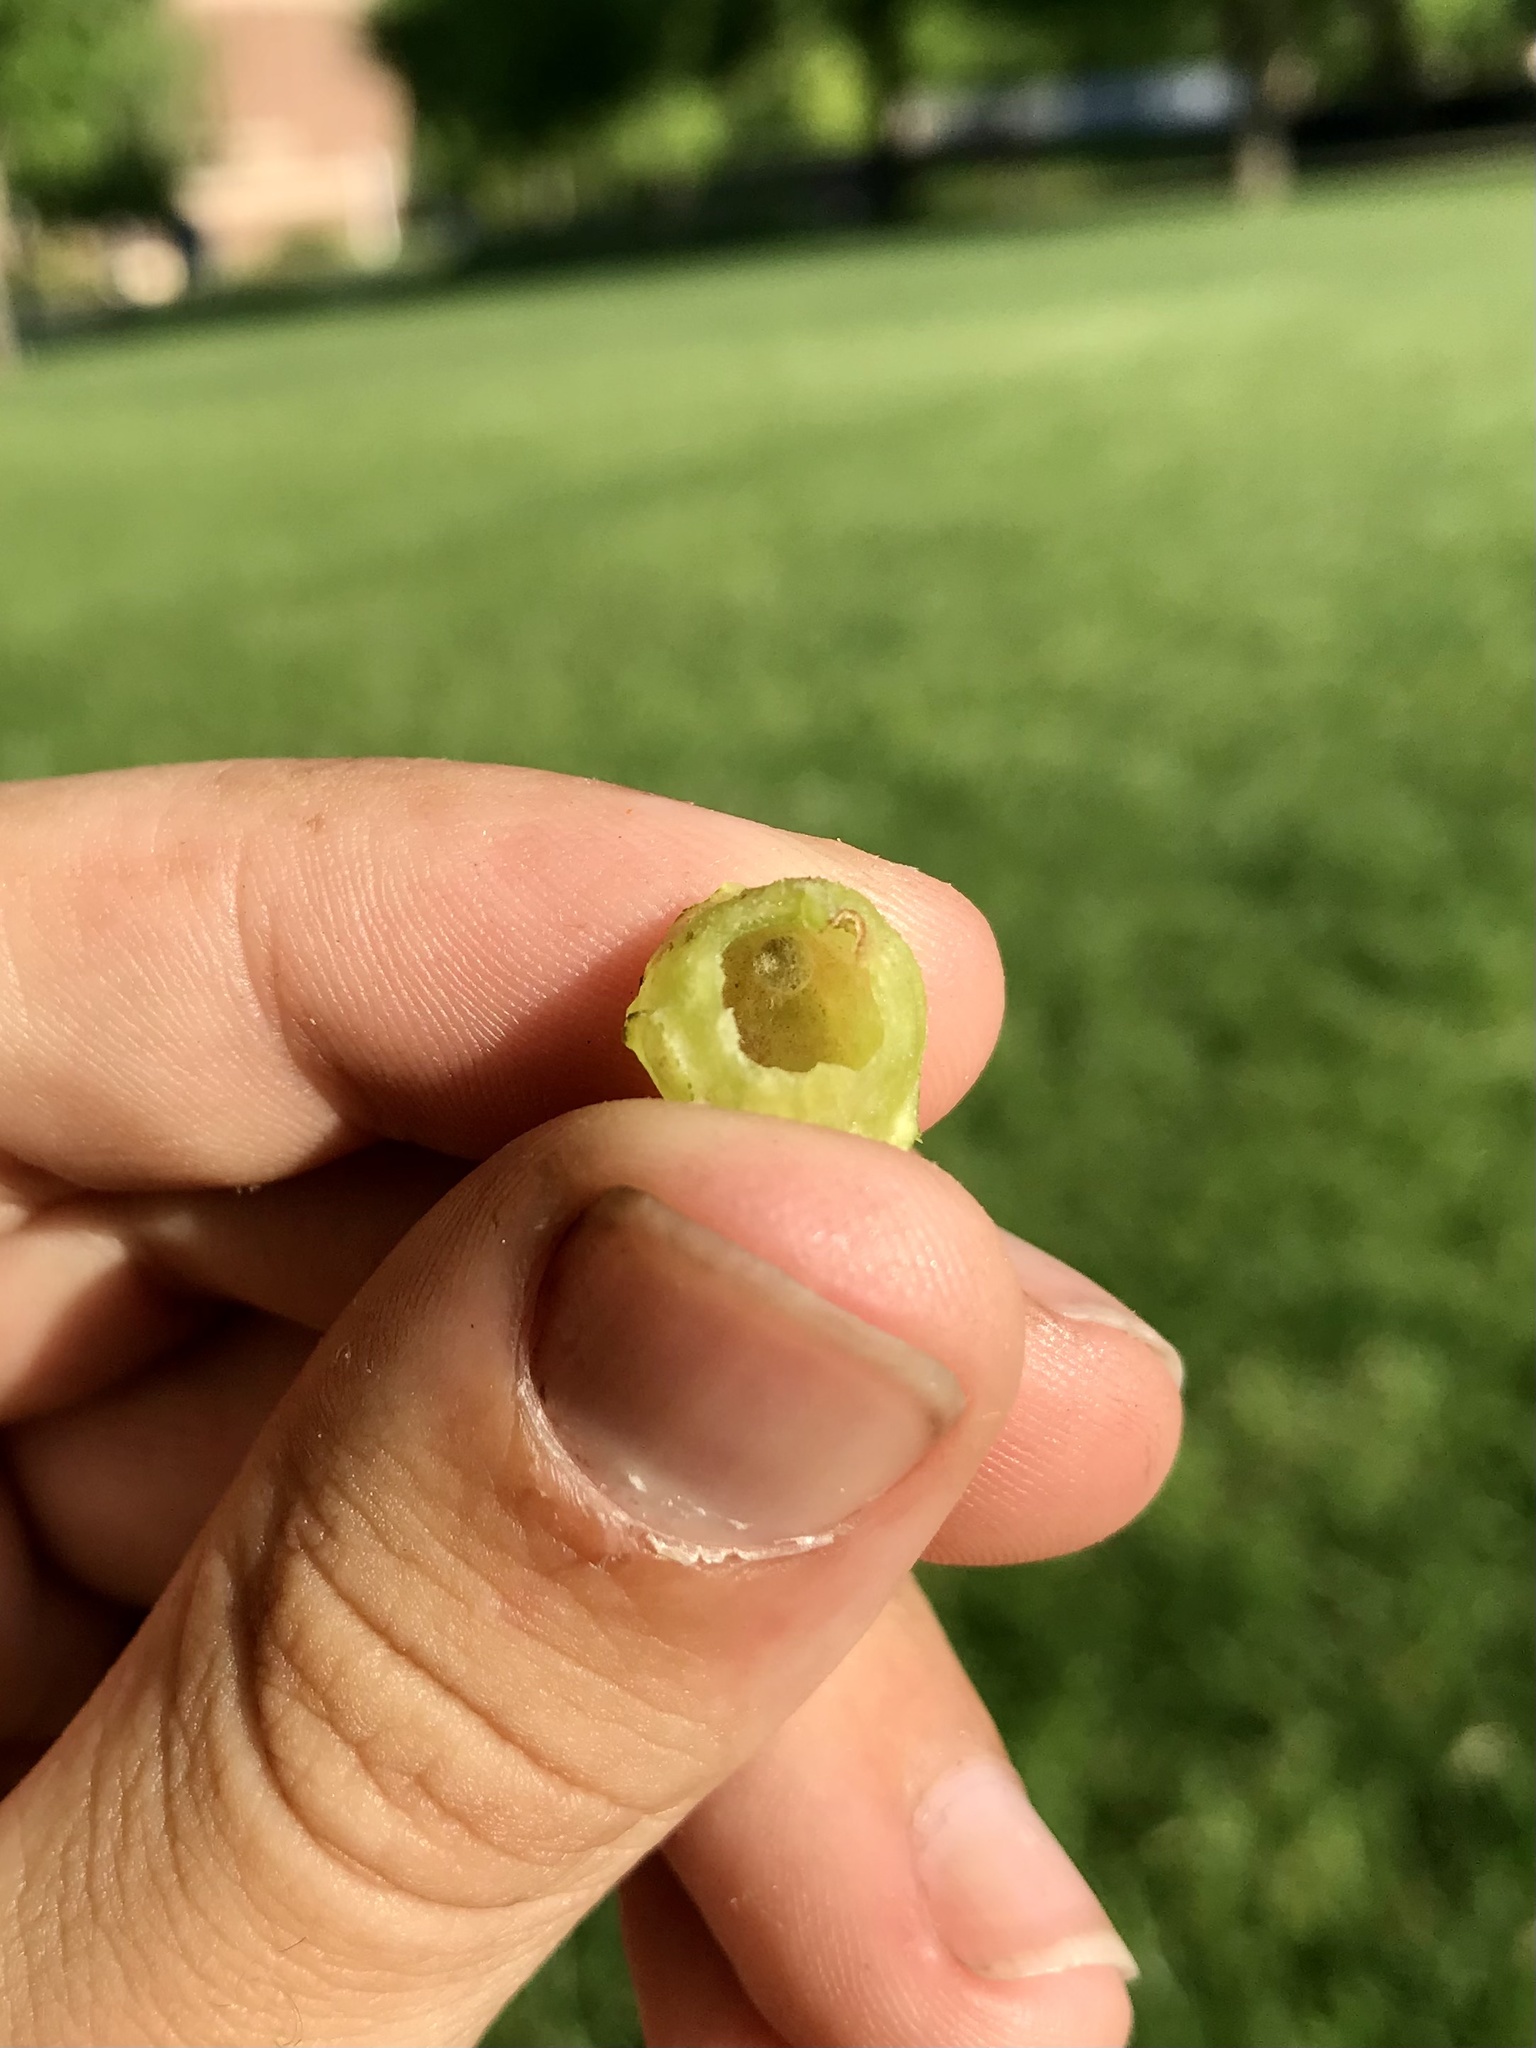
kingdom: Animalia
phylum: Arthropoda
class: Insecta
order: Hymenoptera
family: Cynipidae
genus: Dryocosmus
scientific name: Dryocosmus quercuspalustris
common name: Succulent oak gall wasp
